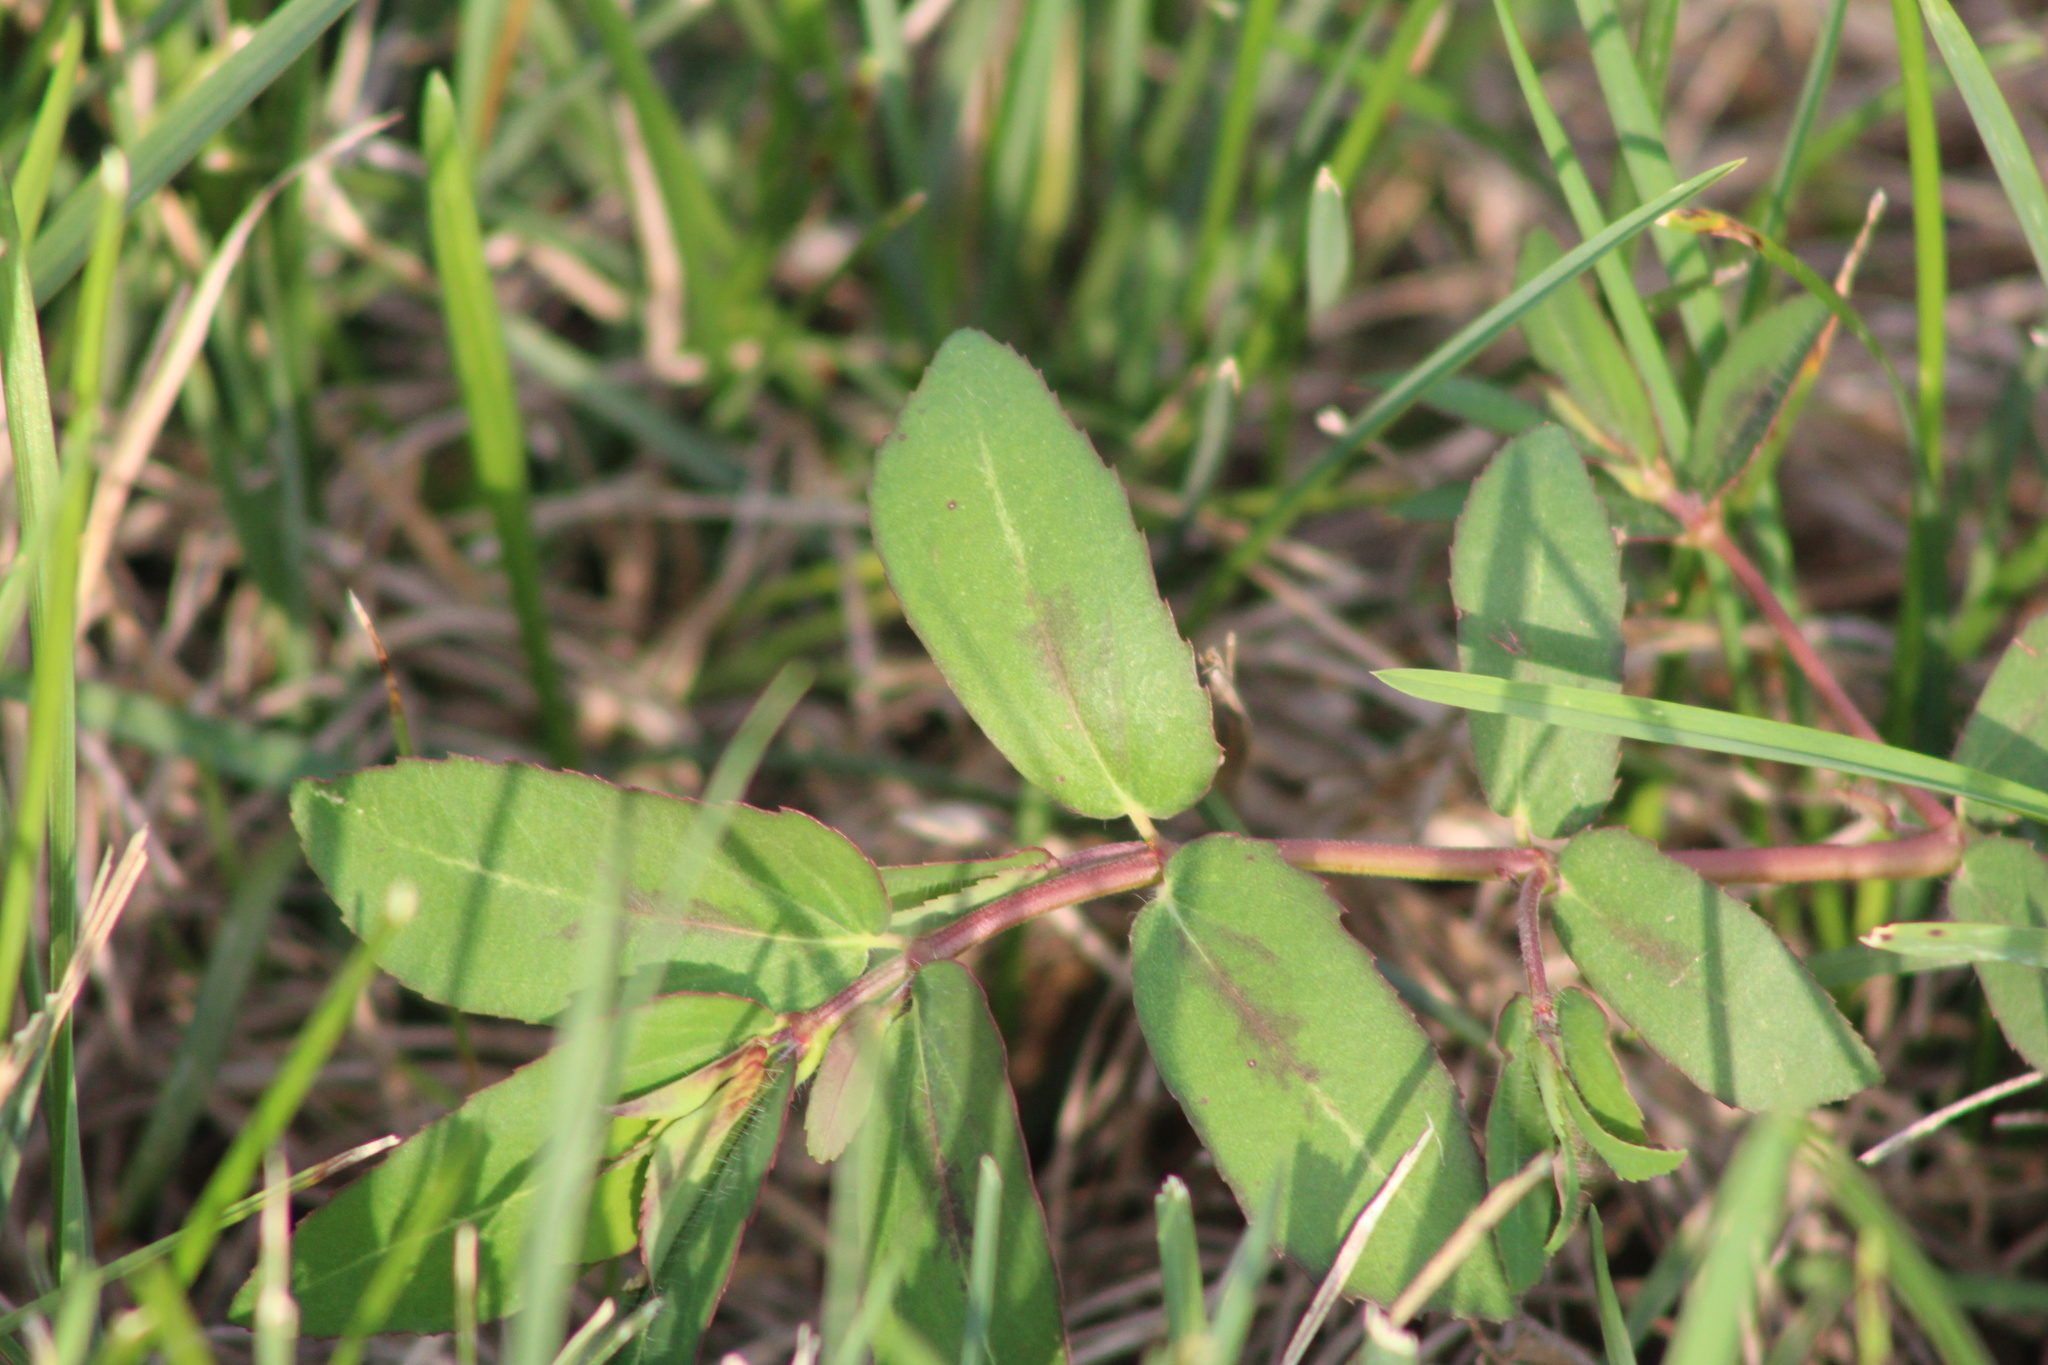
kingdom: Plantae
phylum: Tracheophyta
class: Magnoliopsida
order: Malpighiales
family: Euphorbiaceae
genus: Euphorbia
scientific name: Euphorbia nutans
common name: Eyebane
